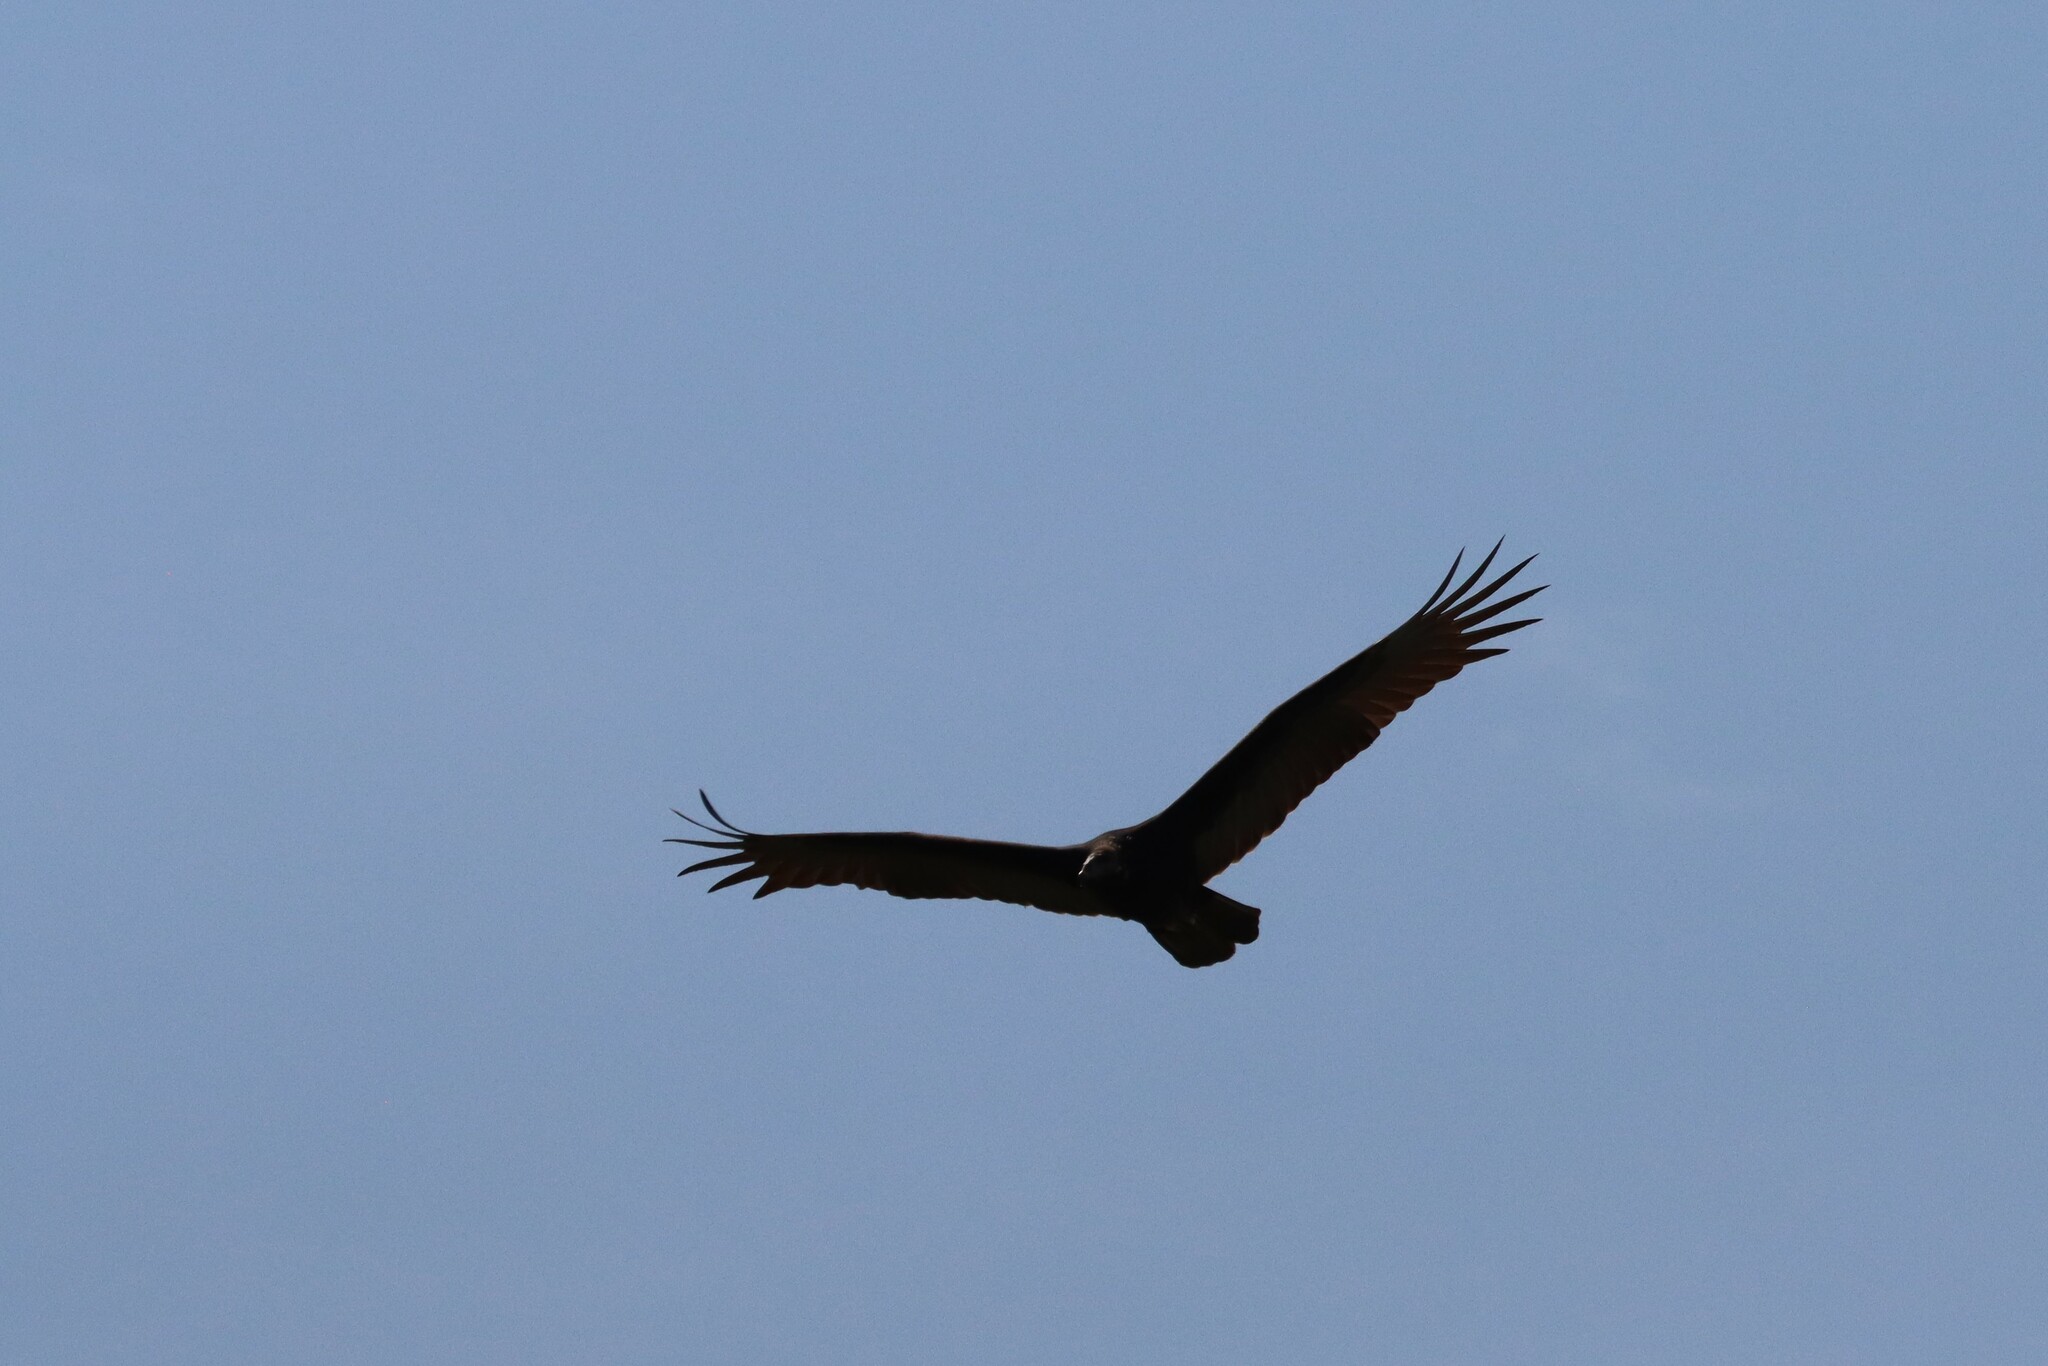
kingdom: Animalia
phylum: Chordata
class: Aves
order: Accipitriformes
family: Cathartidae
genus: Cathartes
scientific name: Cathartes aura
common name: Turkey vulture
